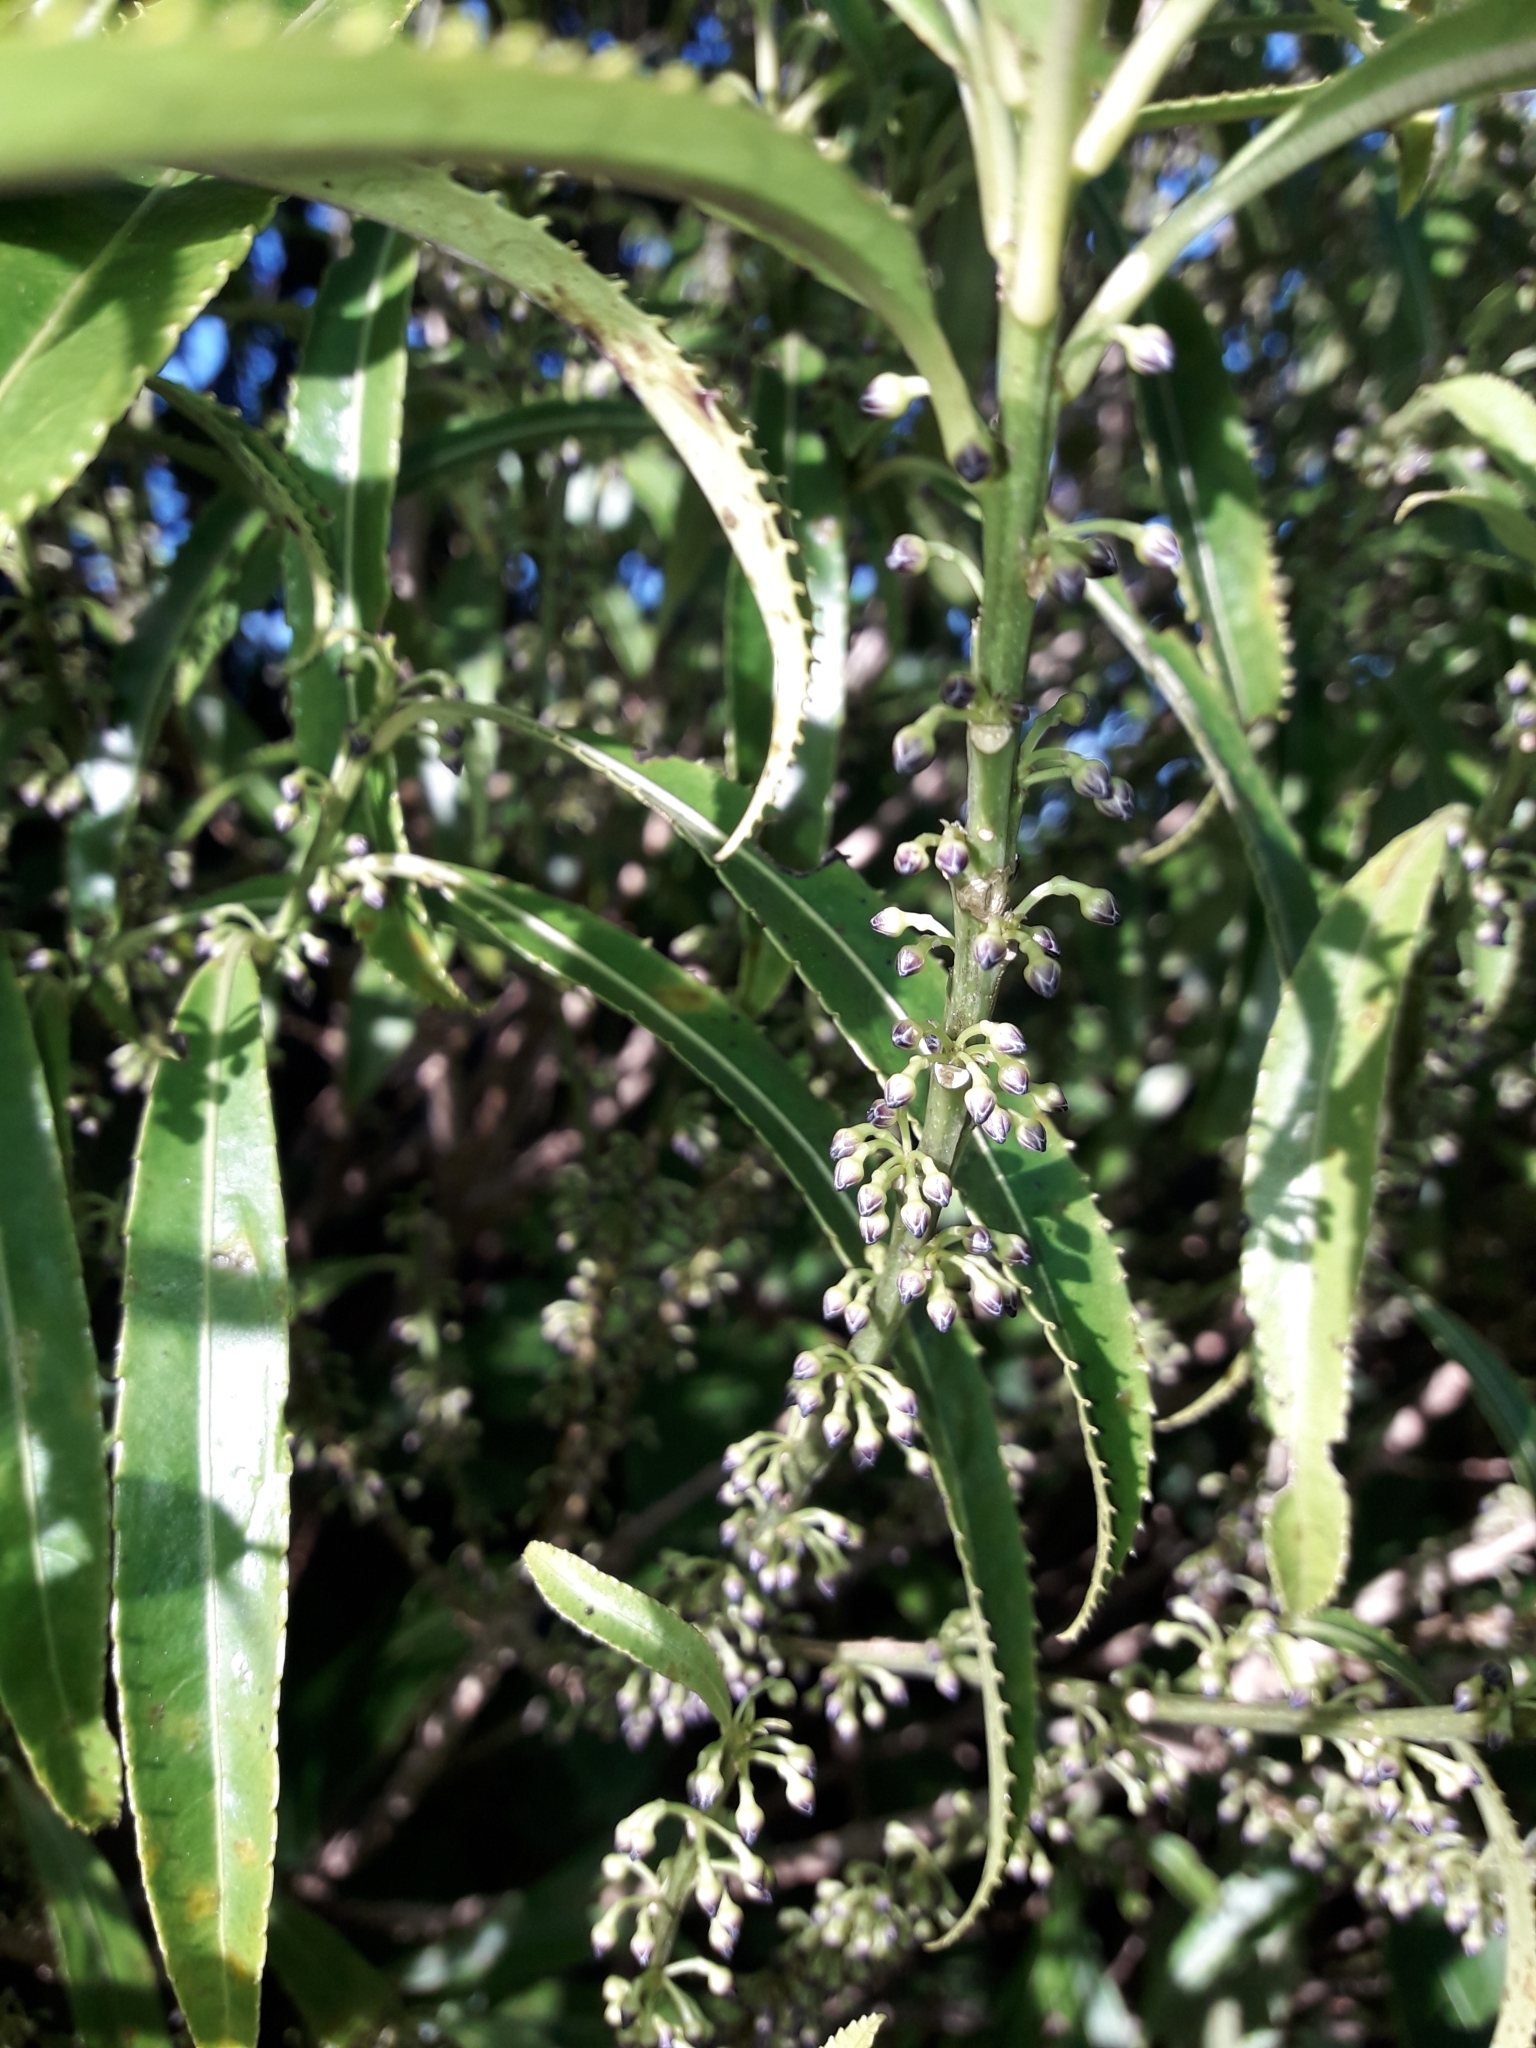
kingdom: Plantae
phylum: Tracheophyta
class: Magnoliopsida
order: Malpighiales
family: Violaceae
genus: Melicytus
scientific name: Melicytus lanceolatus
